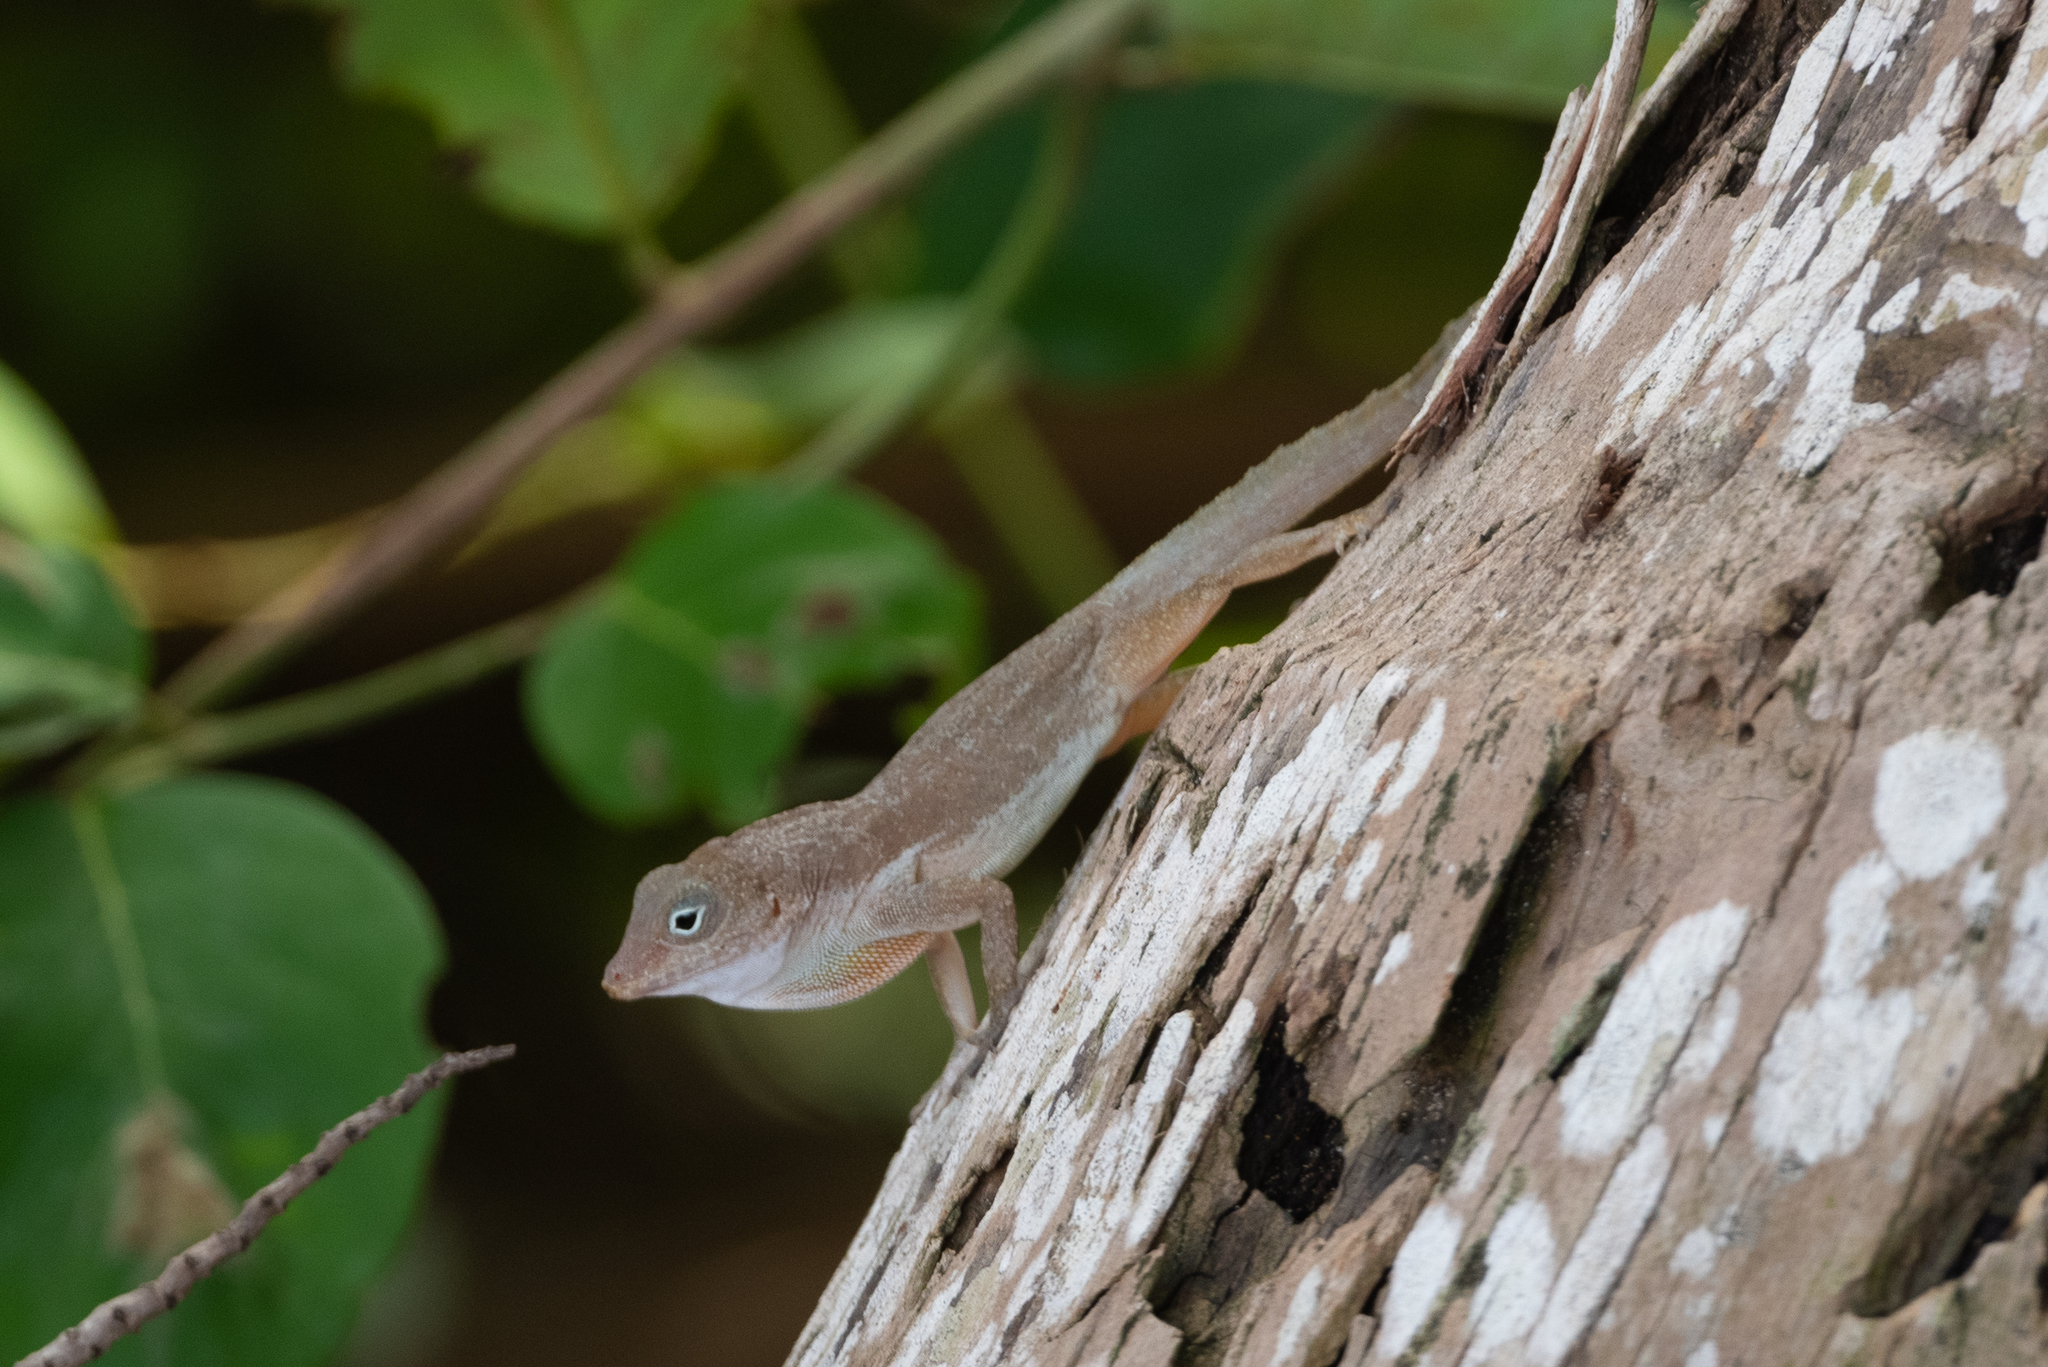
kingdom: Animalia
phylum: Chordata
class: Squamata
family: Dactyloidae
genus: Anolis
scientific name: Anolis cristatellus
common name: Crested anole
